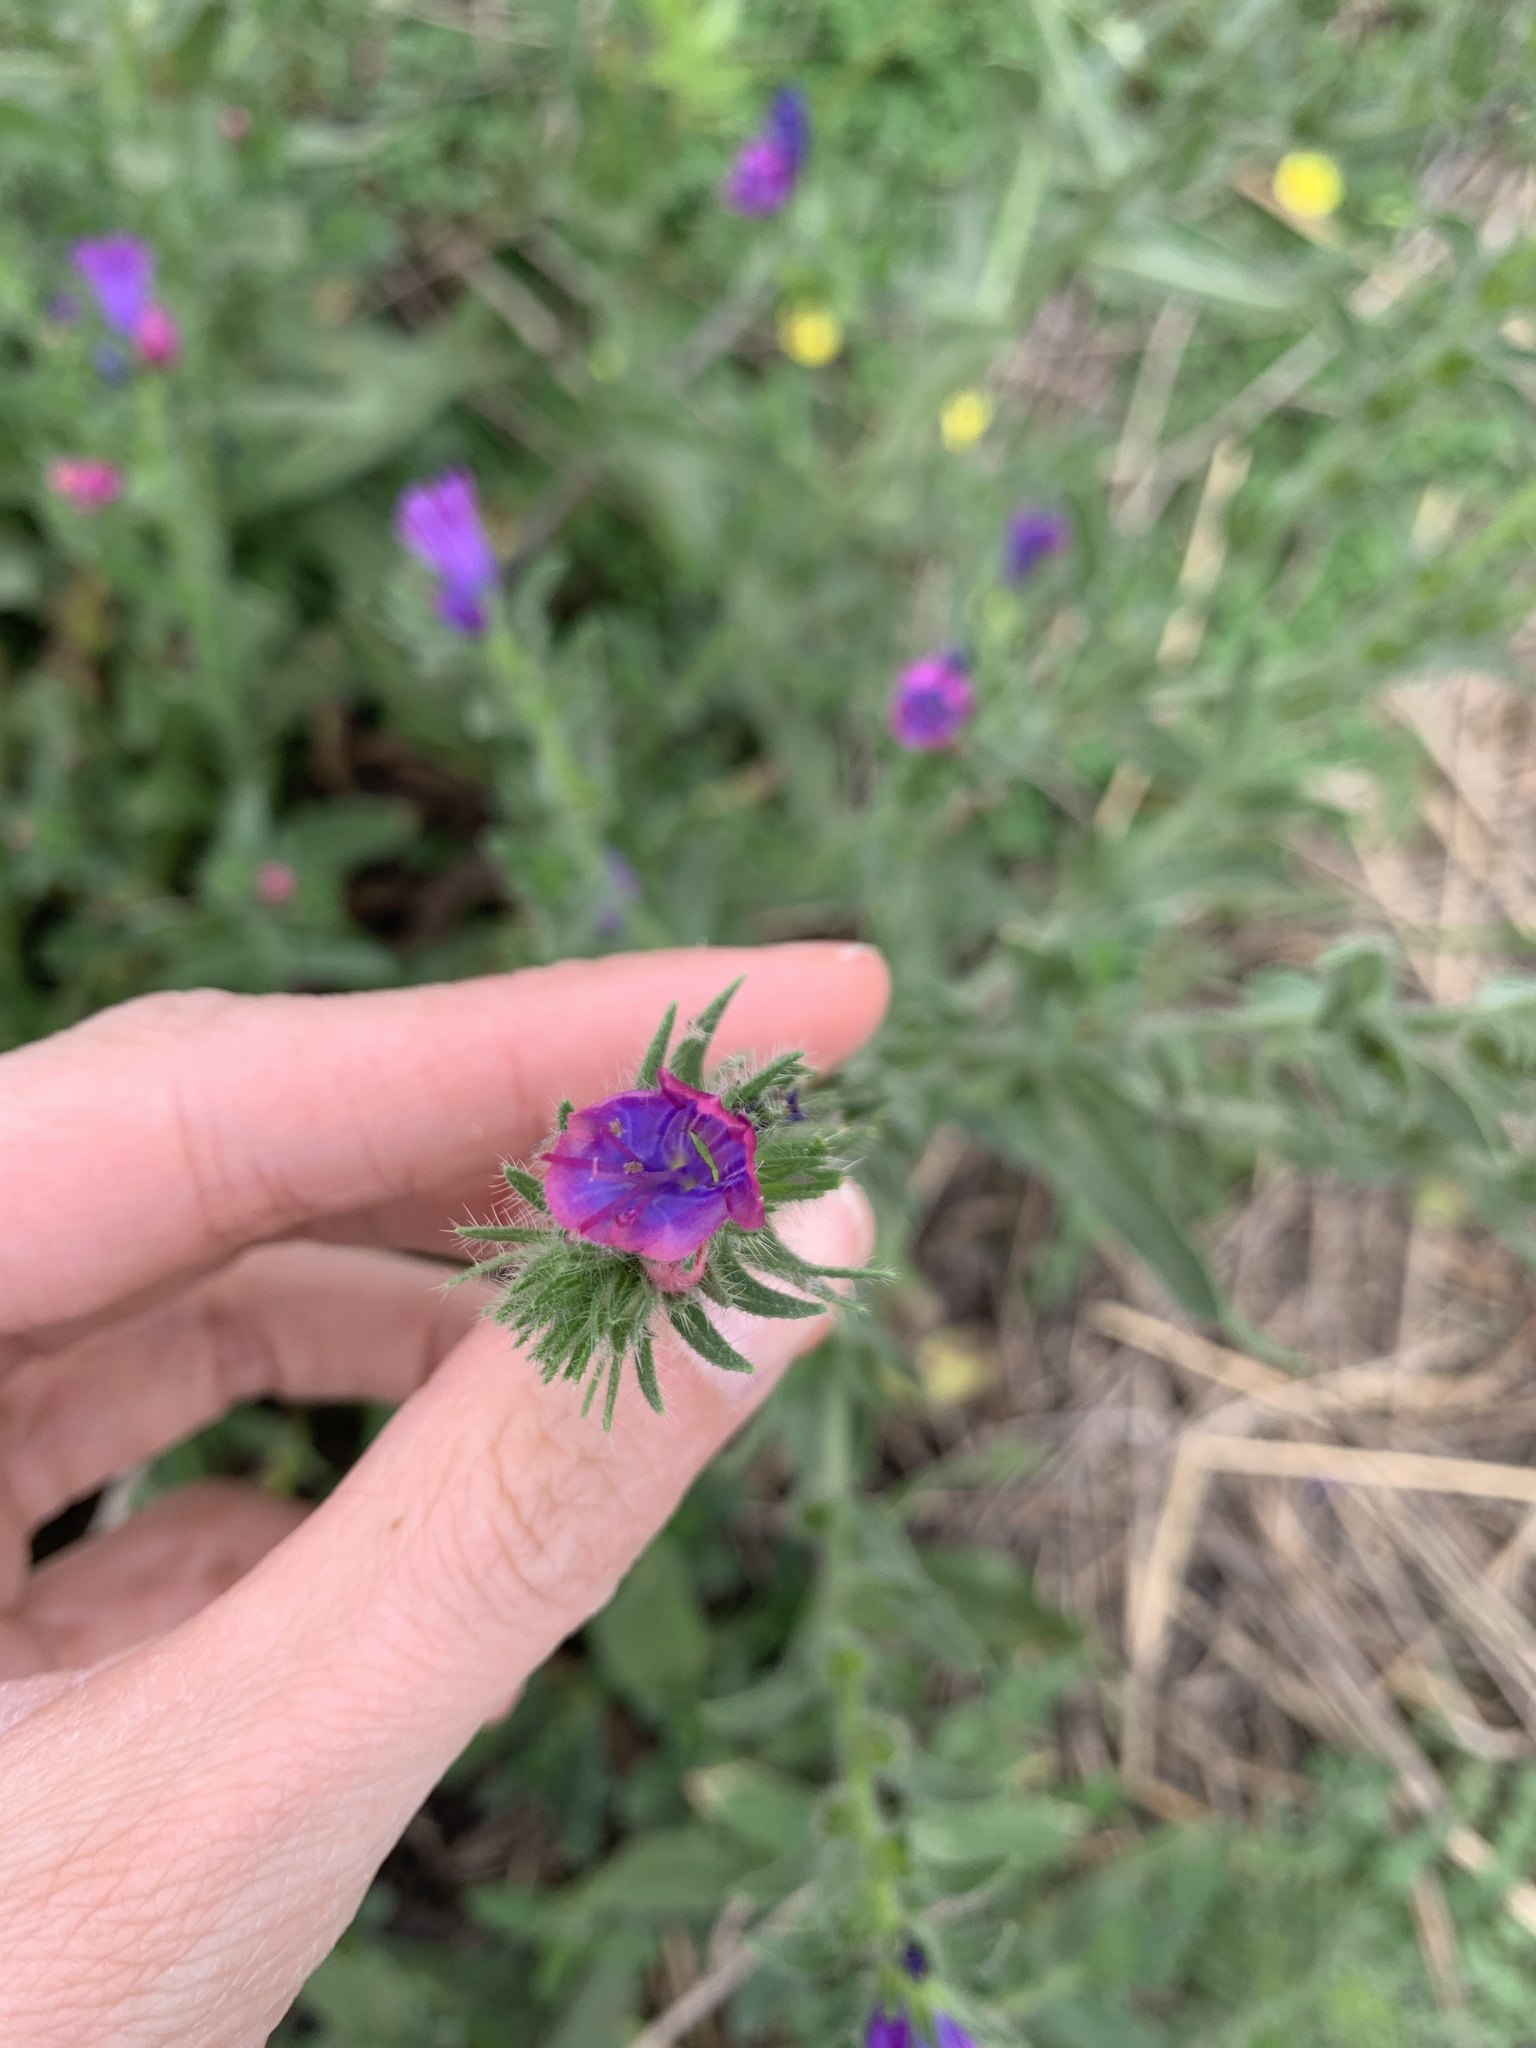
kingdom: Plantae
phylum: Tracheophyta
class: Magnoliopsida
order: Boraginales
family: Boraginaceae
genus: Echium
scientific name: Echium plantagineum
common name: Purple viper's-bugloss
